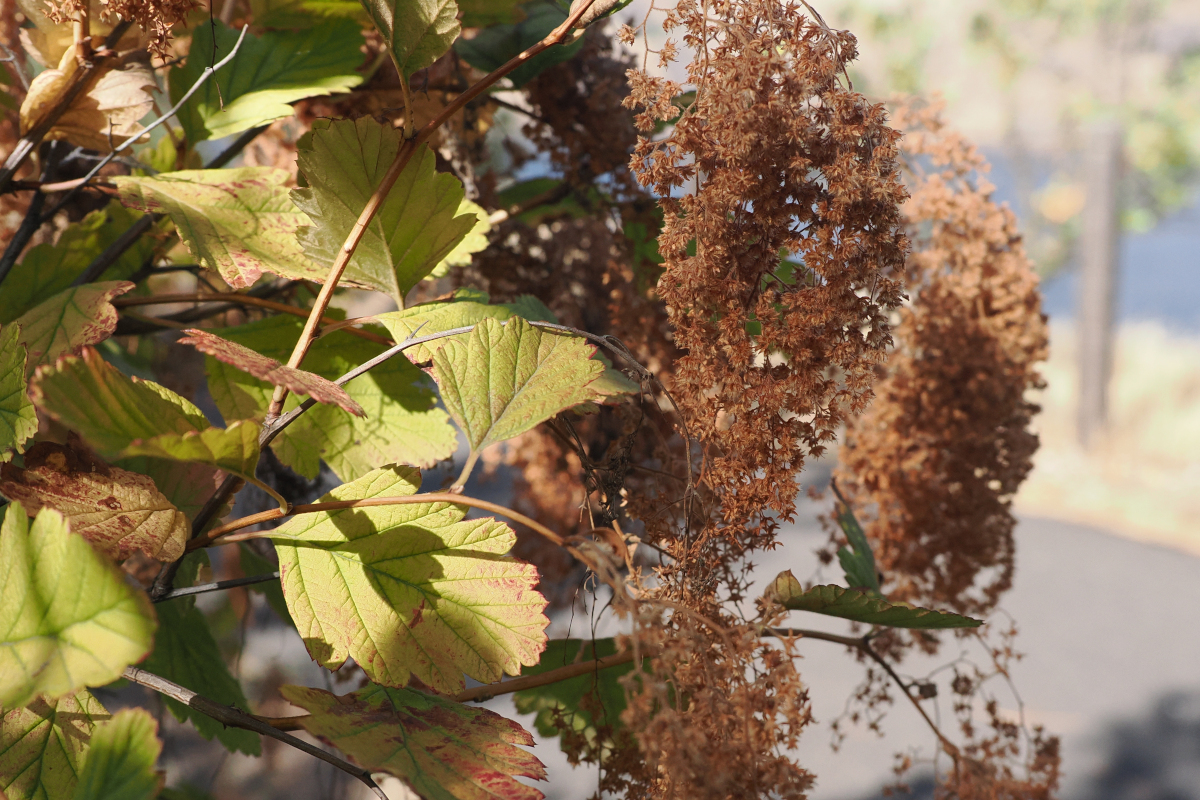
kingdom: Plantae
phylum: Tracheophyta
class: Magnoliopsida
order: Rosales
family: Rosaceae
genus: Holodiscus
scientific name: Holodiscus discolor
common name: Oceanspray
